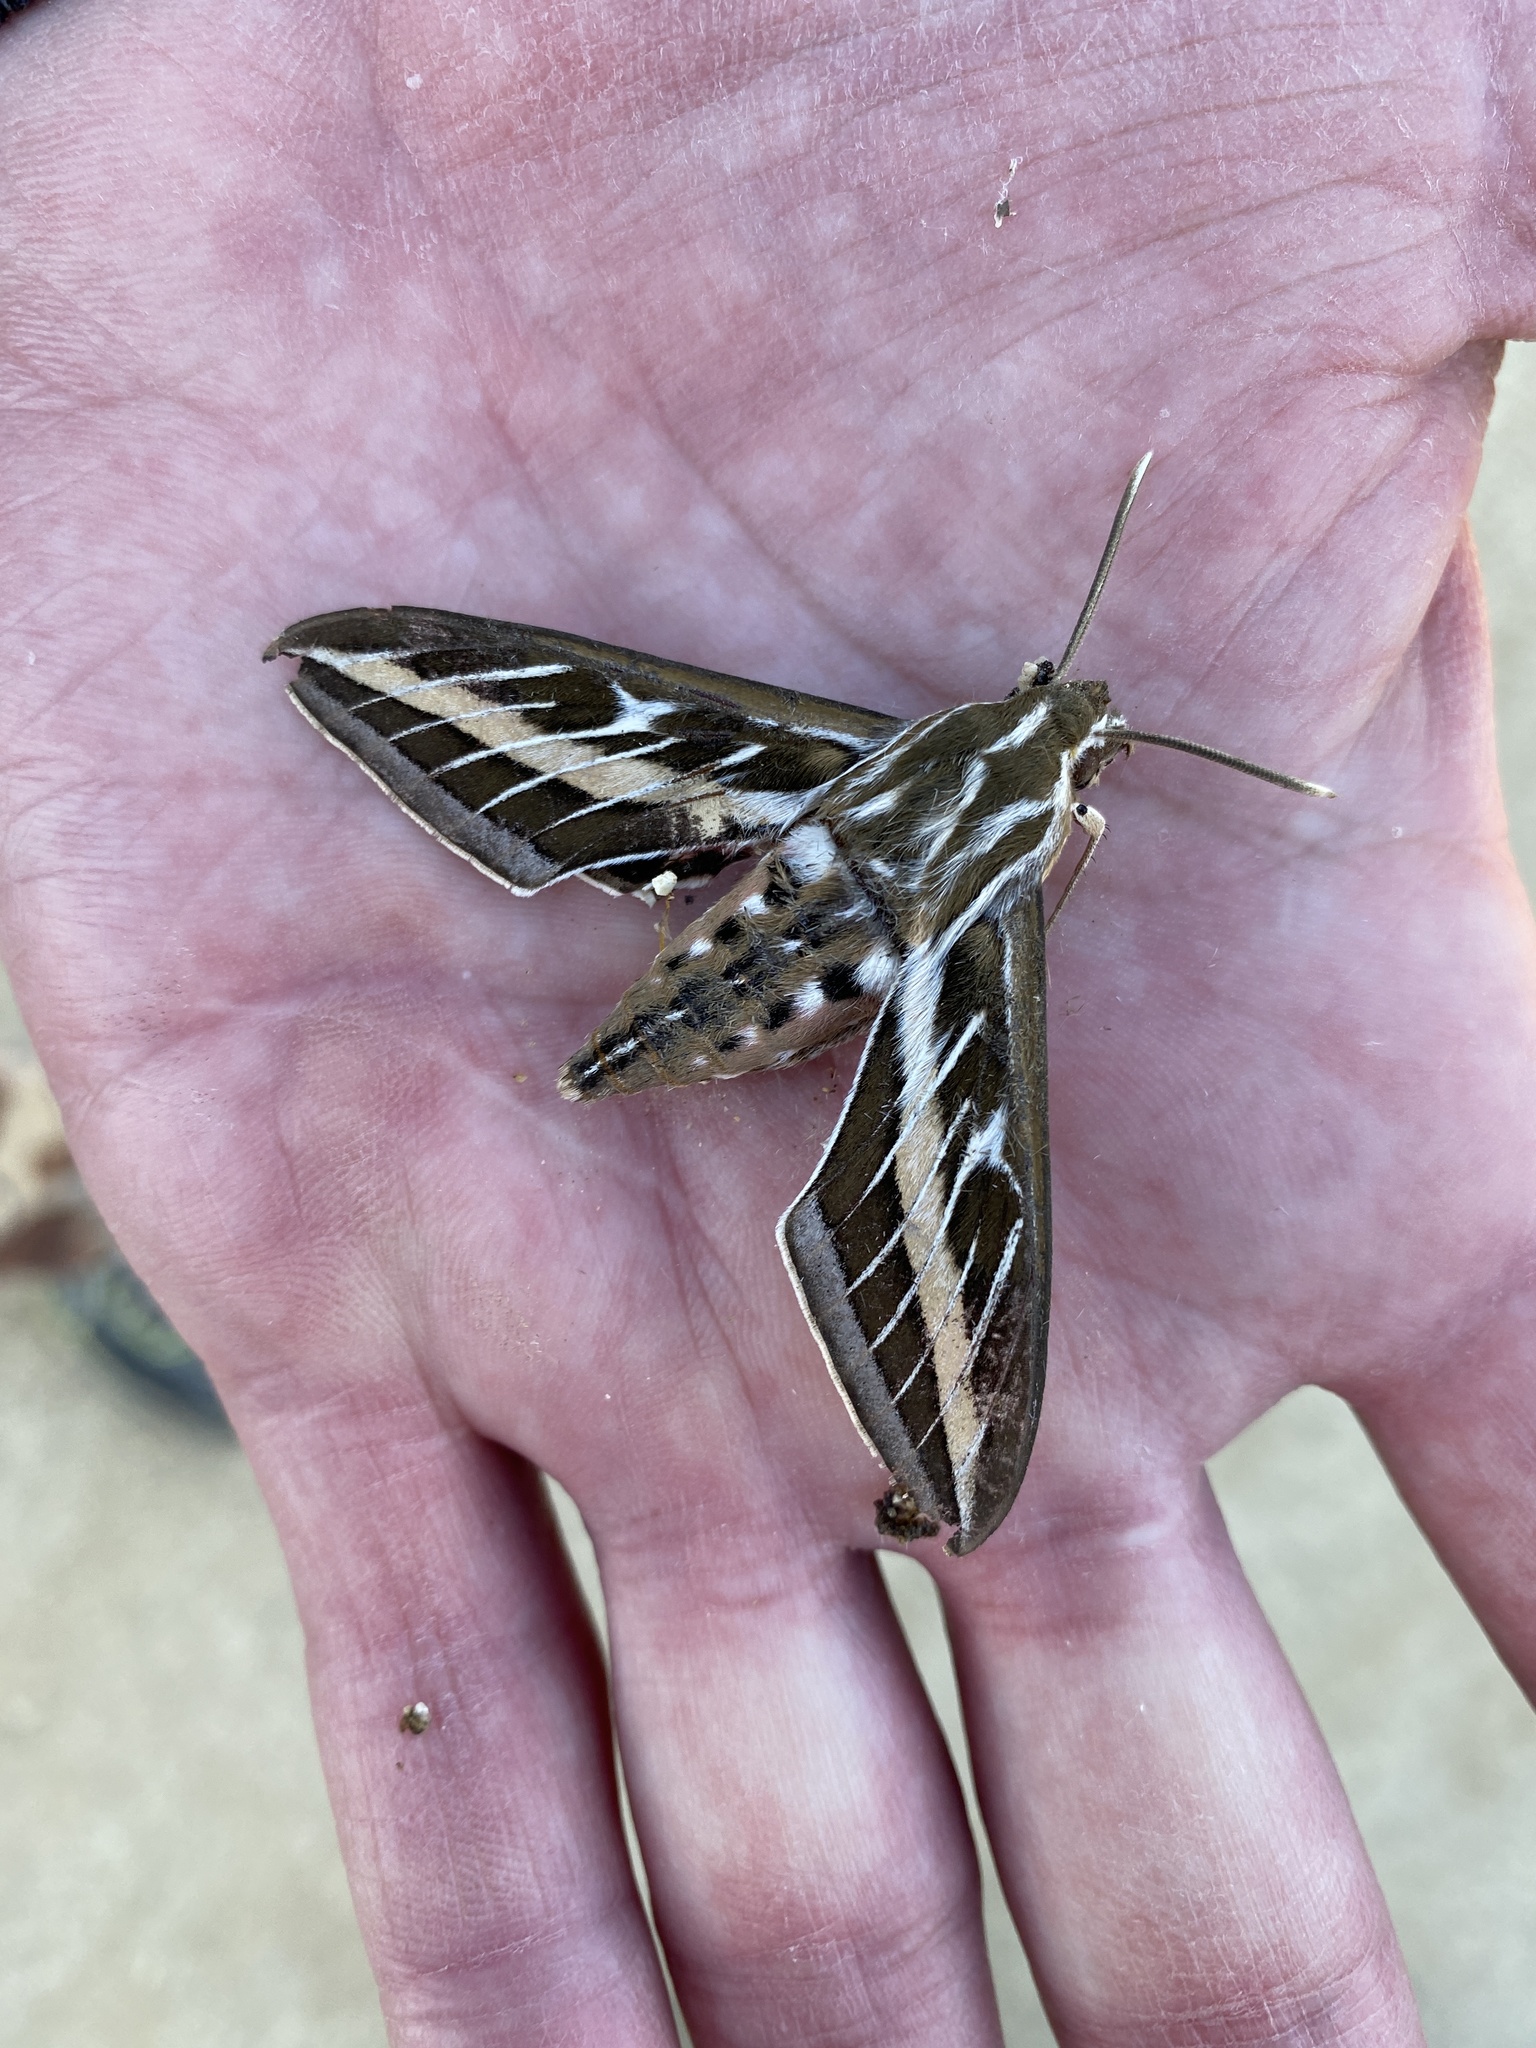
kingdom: Animalia
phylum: Arthropoda
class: Insecta
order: Lepidoptera
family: Sphingidae
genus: Hyles
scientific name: Hyles lineata
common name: White-lined sphinx
